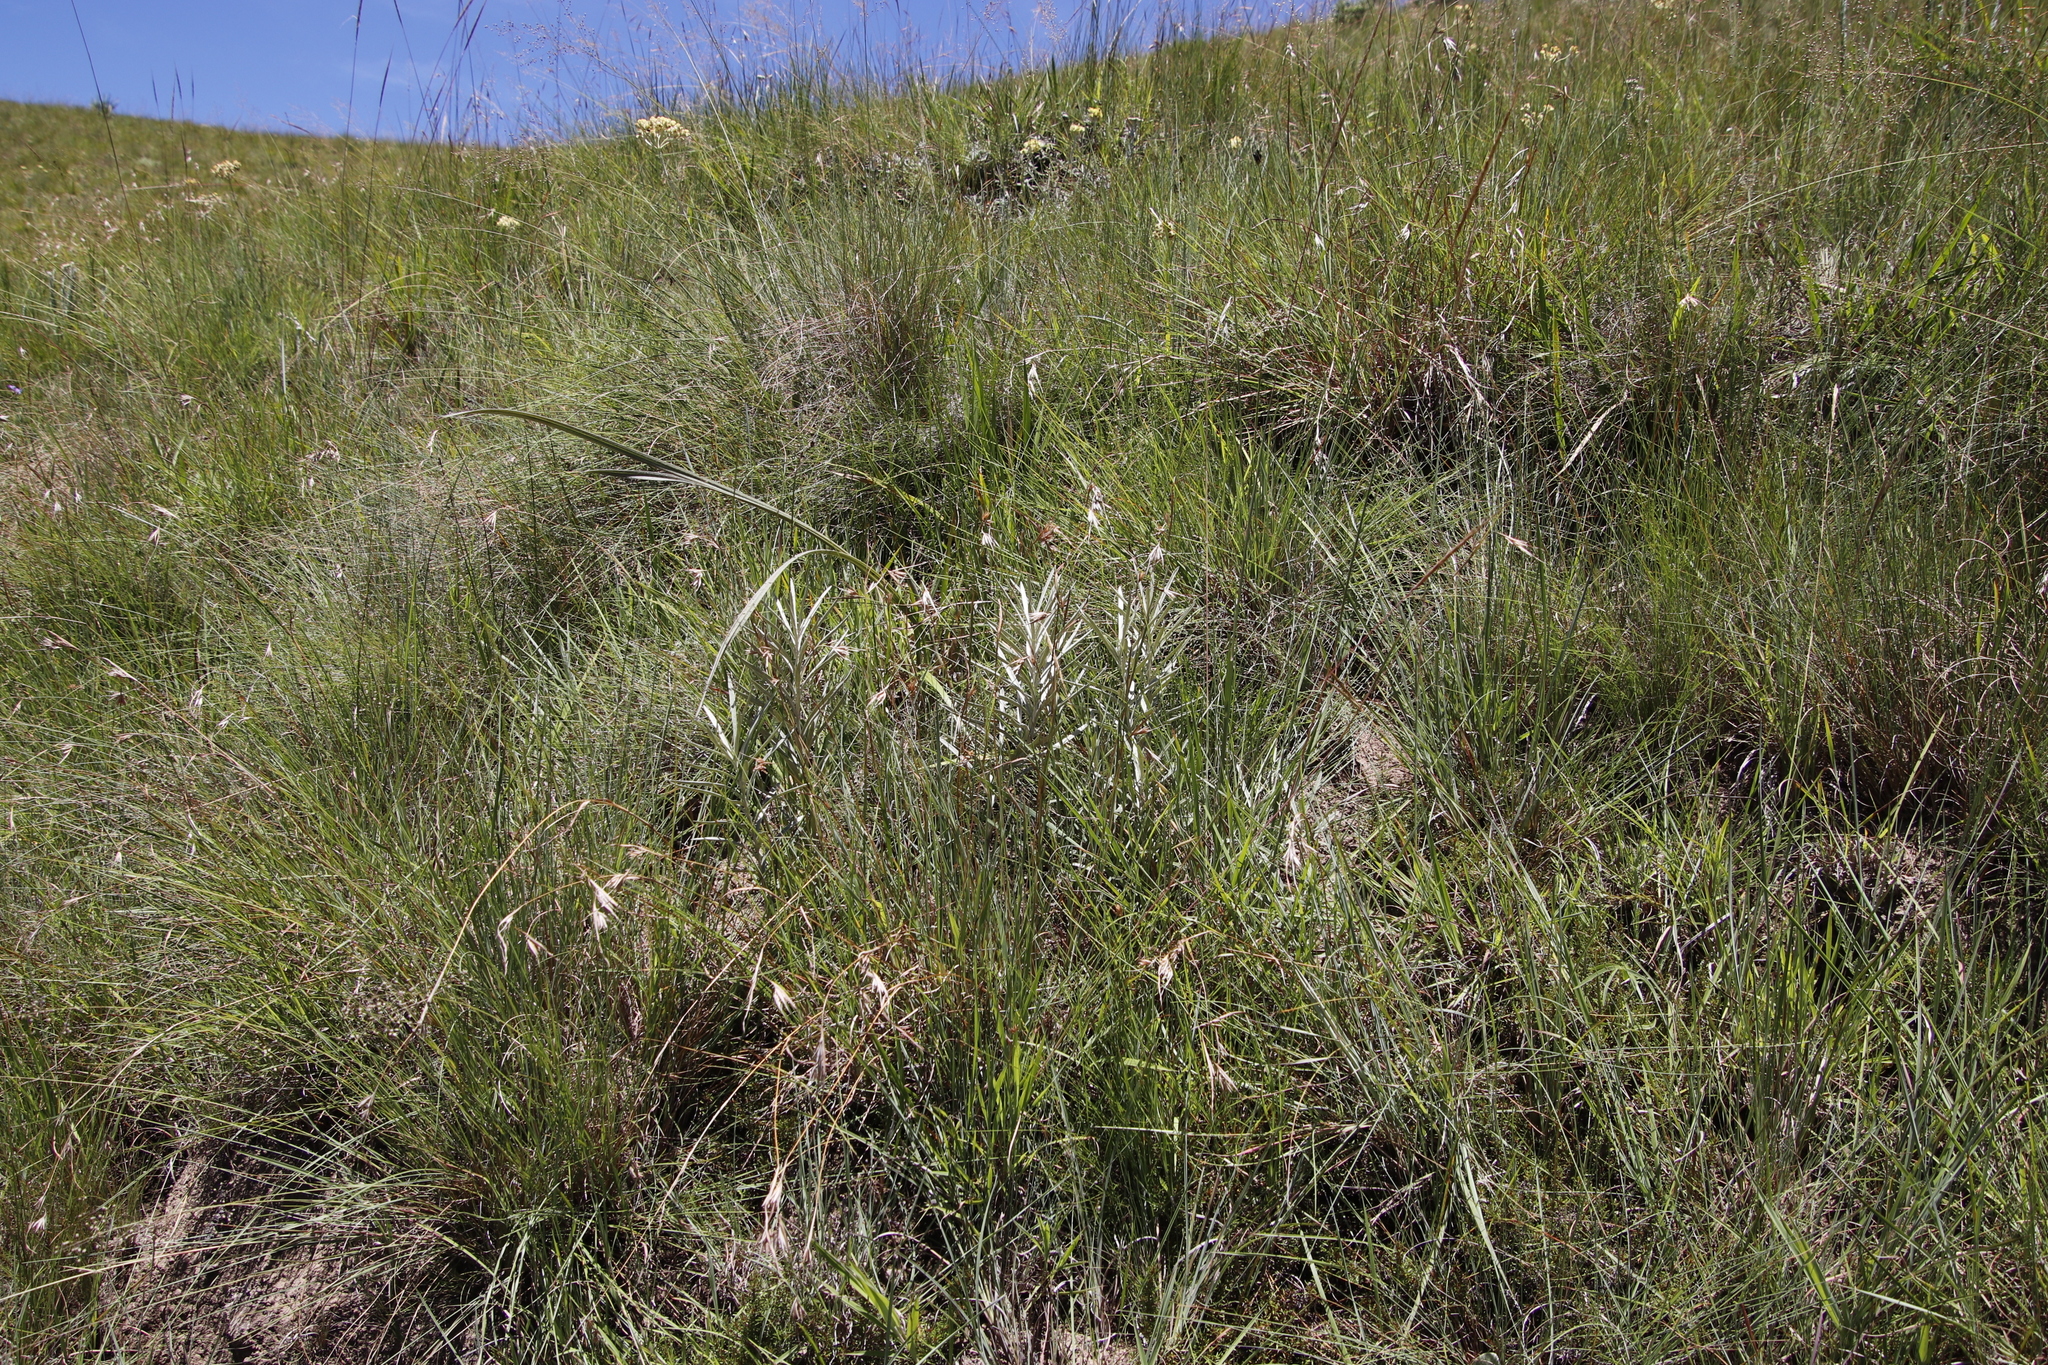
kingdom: Plantae
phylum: Tracheophyta
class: Magnoliopsida
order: Asterales
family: Asteraceae
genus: Hilliardiella
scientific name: Hilliardiella capensis
